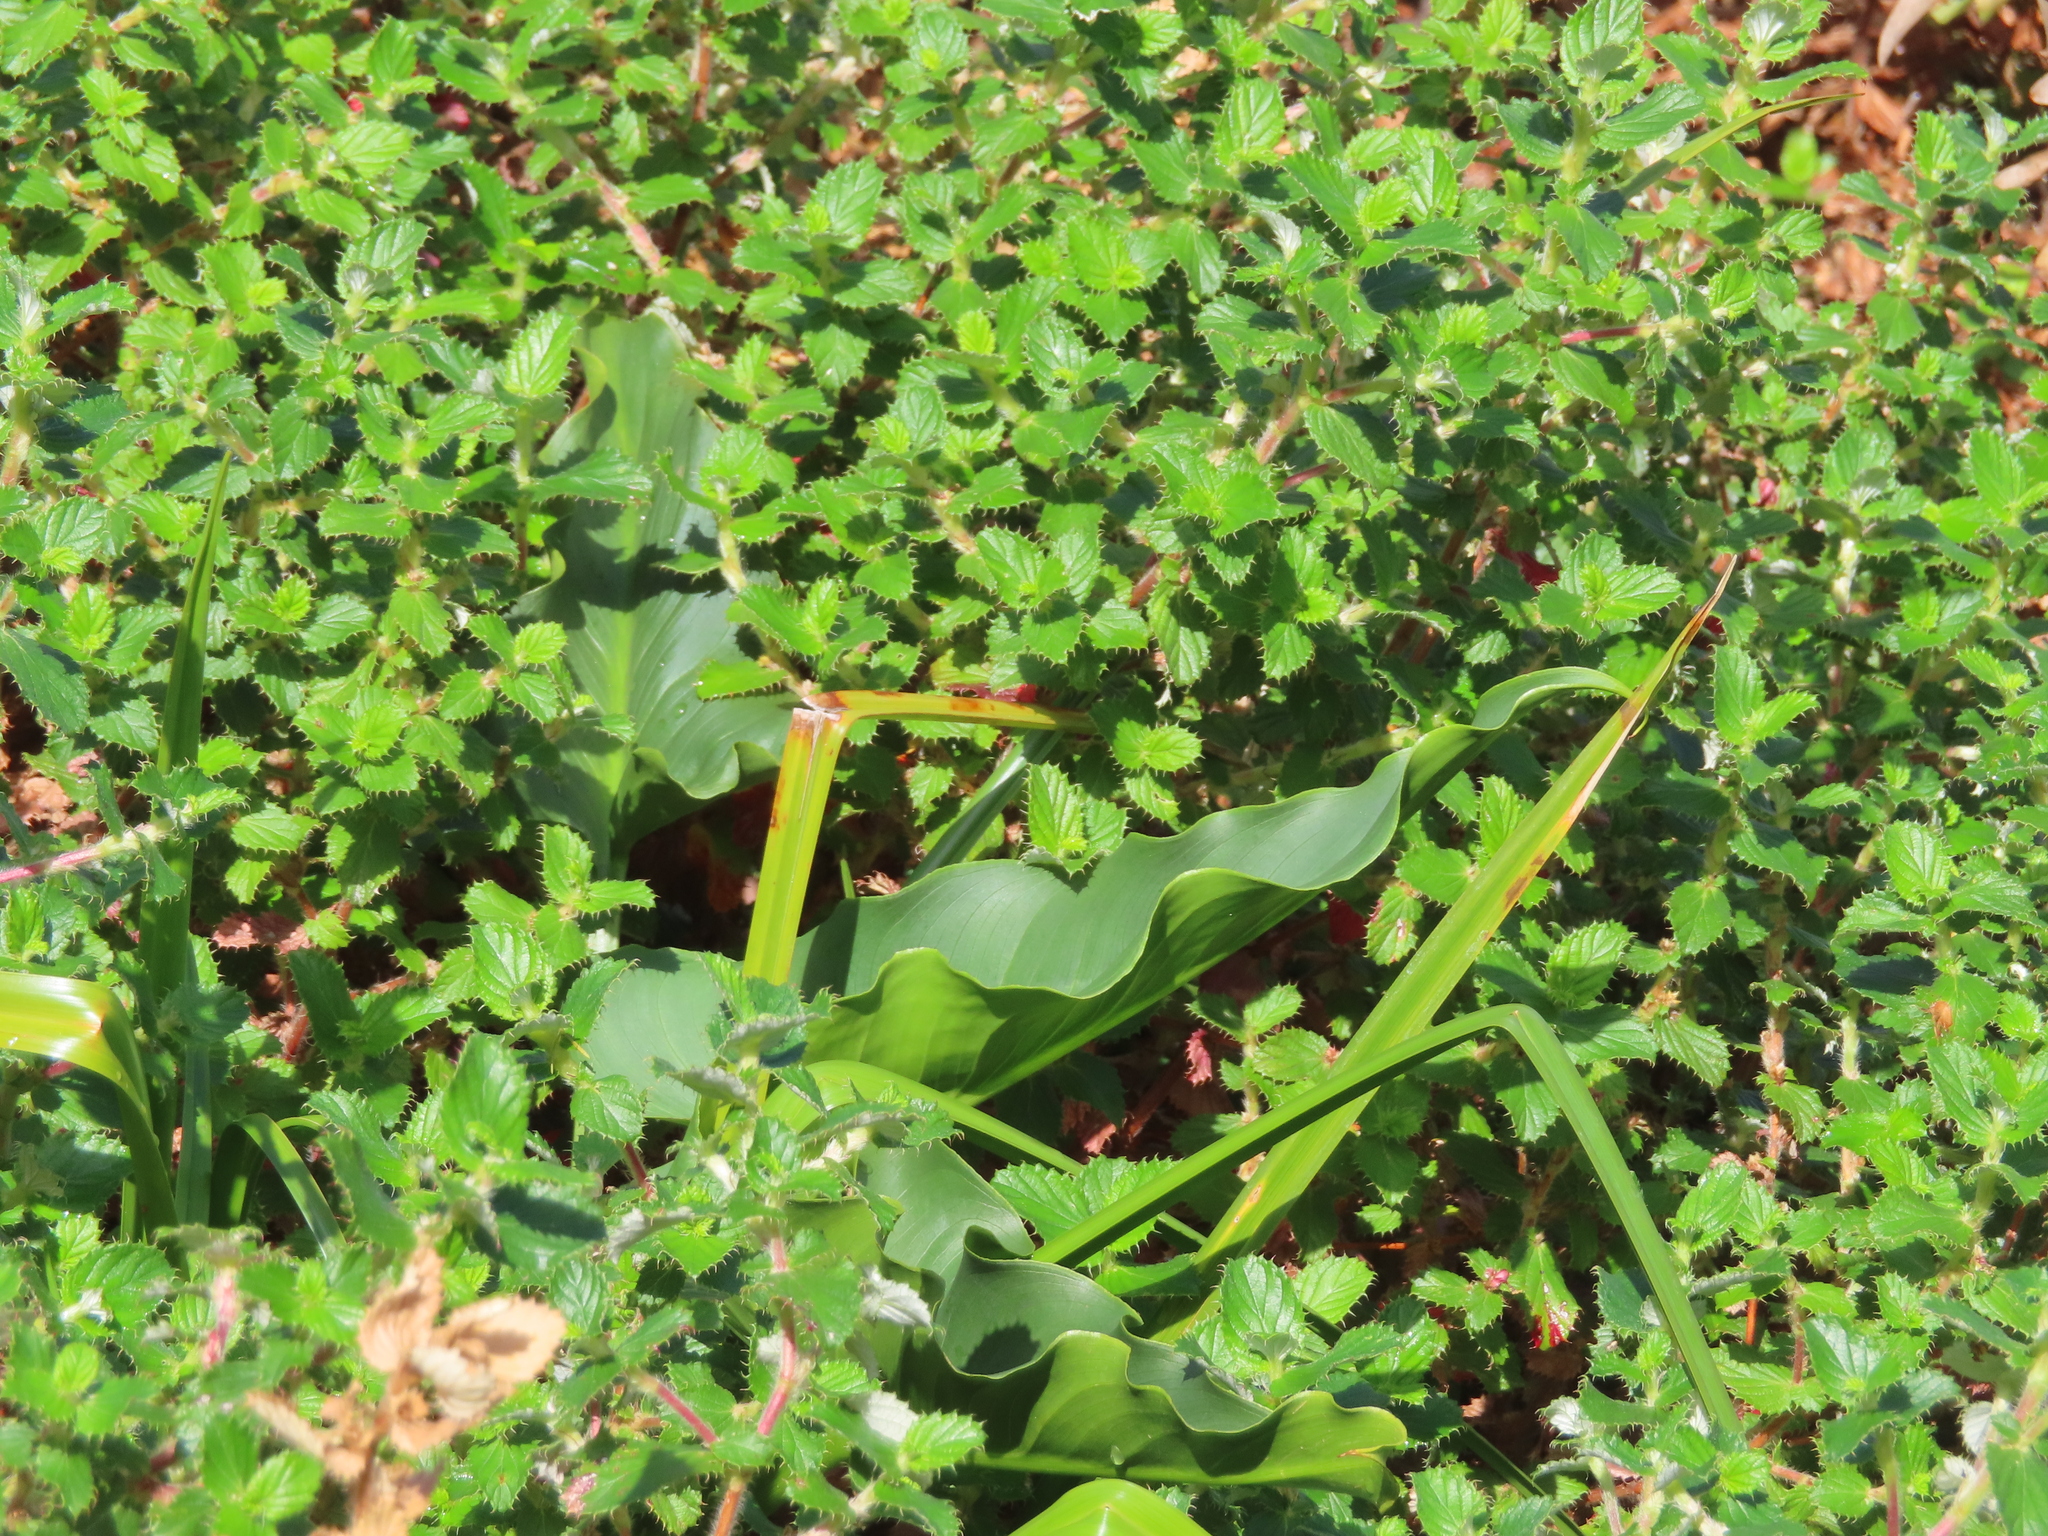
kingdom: Plantae
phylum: Tracheophyta
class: Liliopsida
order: Alismatales
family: Araceae
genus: Zantedeschia
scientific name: Zantedeschia aethiopica
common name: Altar-lily
